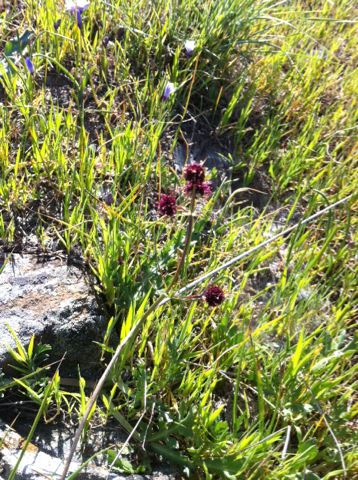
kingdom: Plantae
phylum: Tracheophyta
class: Magnoliopsida
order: Apiales
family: Apiaceae
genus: Sanicula
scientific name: Sanicula bipinnatifida
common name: Shoe-buttons
